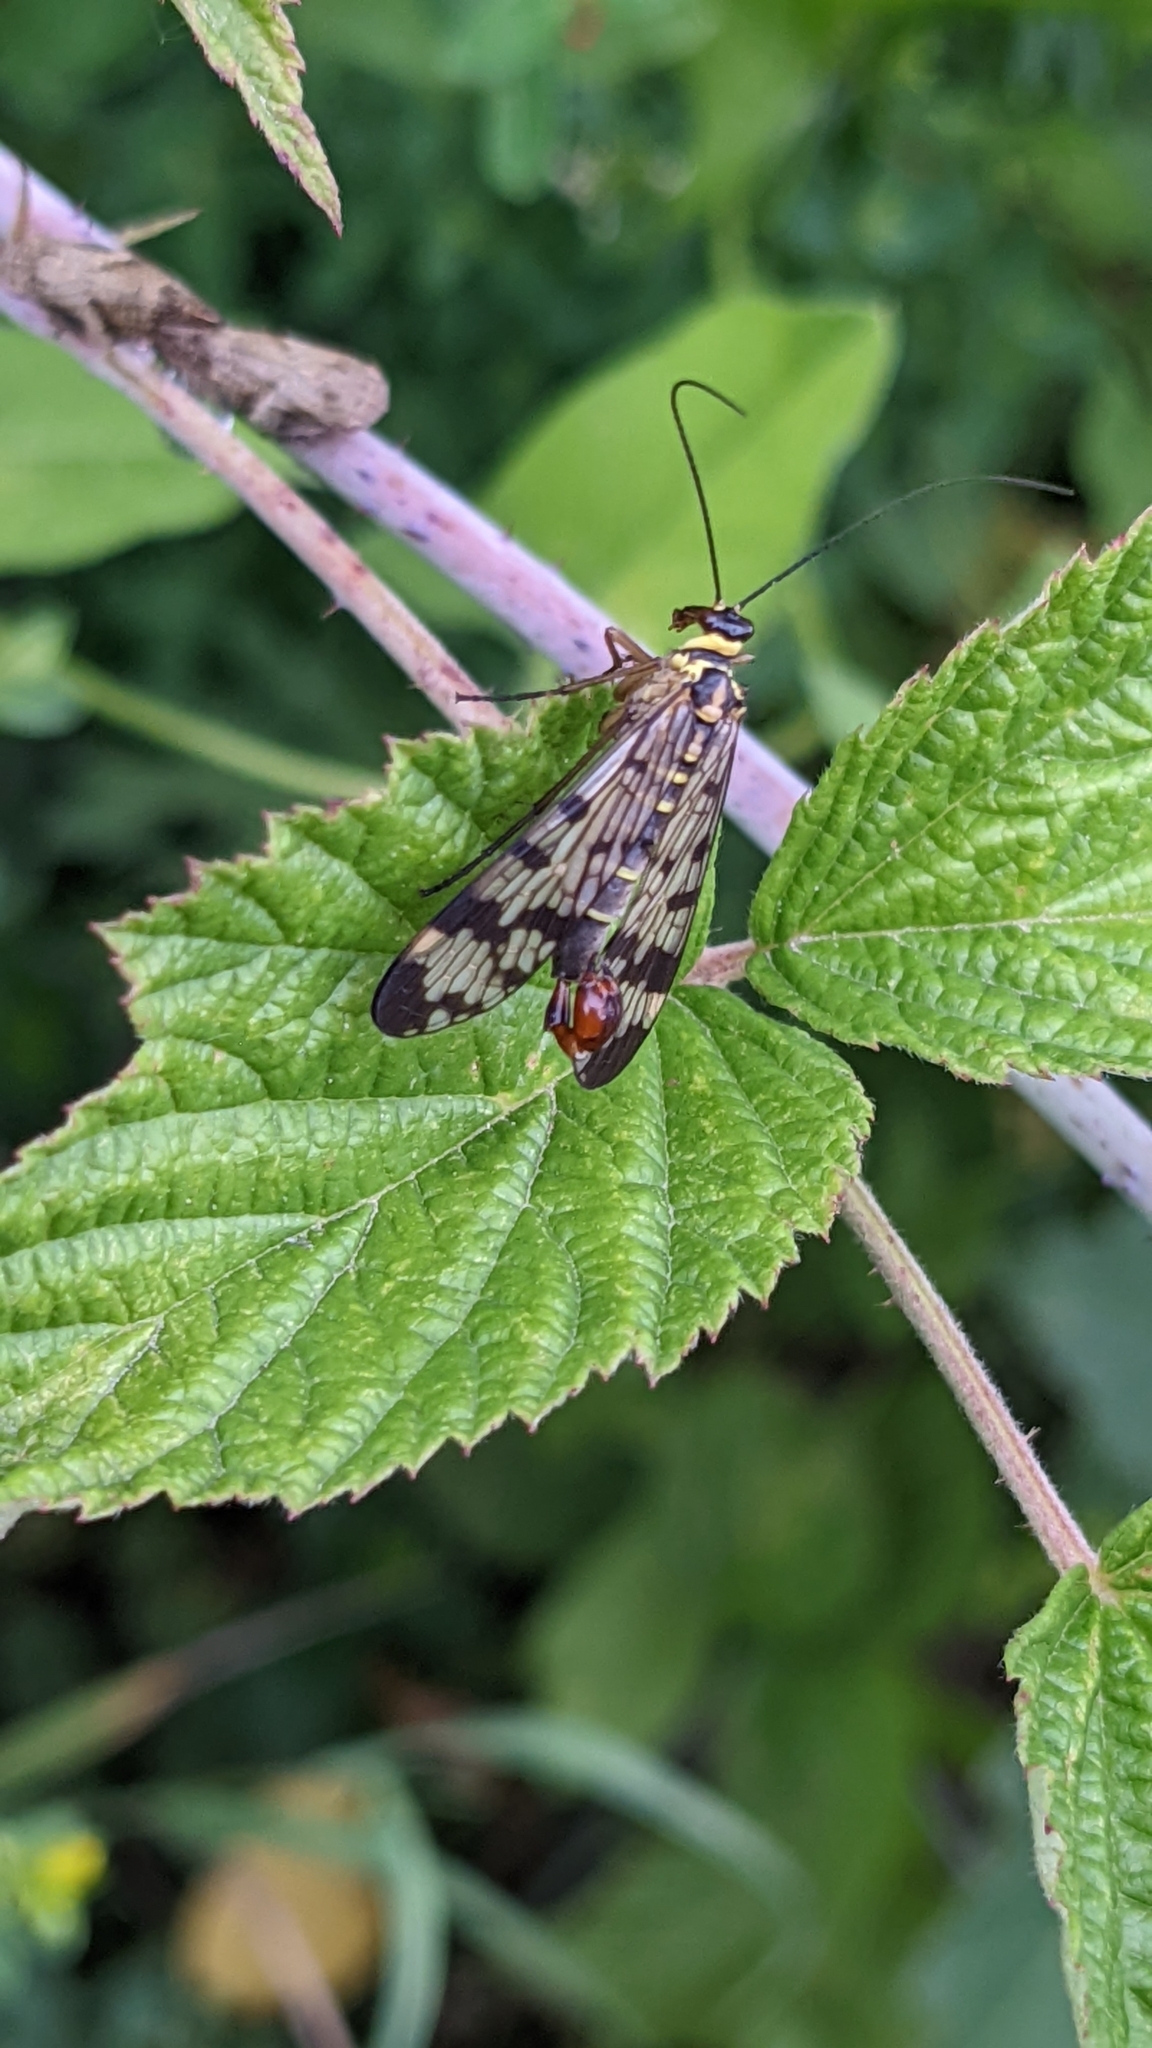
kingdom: Animalia
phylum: Arthropoda
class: Insecta
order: Mecoptera
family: Panorpidae
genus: Panorpa
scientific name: Panorpa communis
